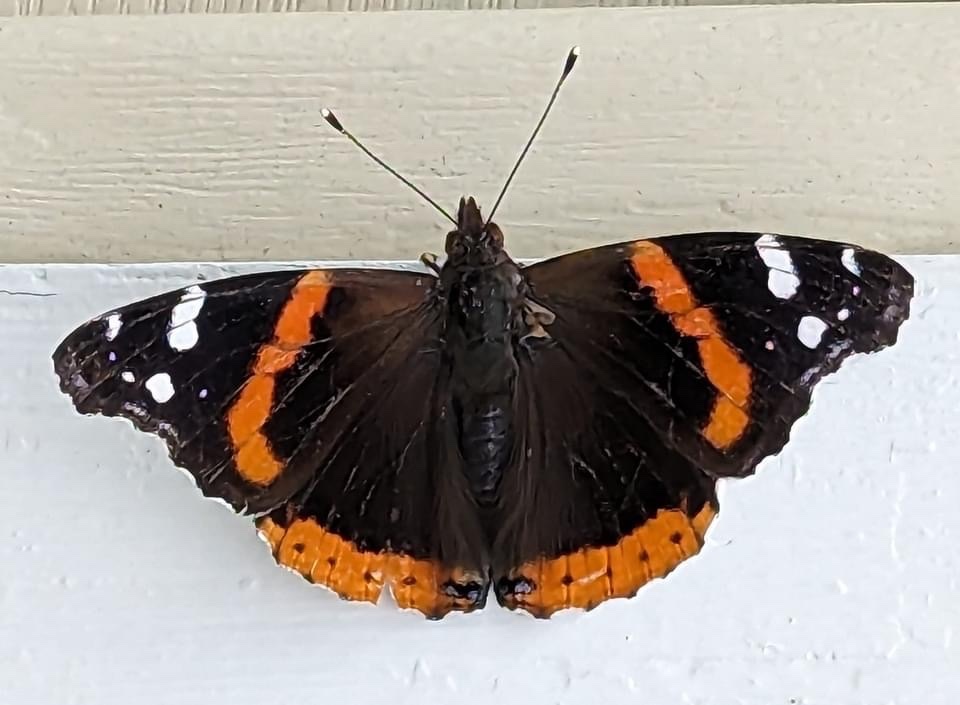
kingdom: Animalia
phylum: Arthropoda
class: Insecta
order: Lepidoptera
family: Nymphalidae
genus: Vanessa
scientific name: Vanessa atalanta
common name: Red admiral
